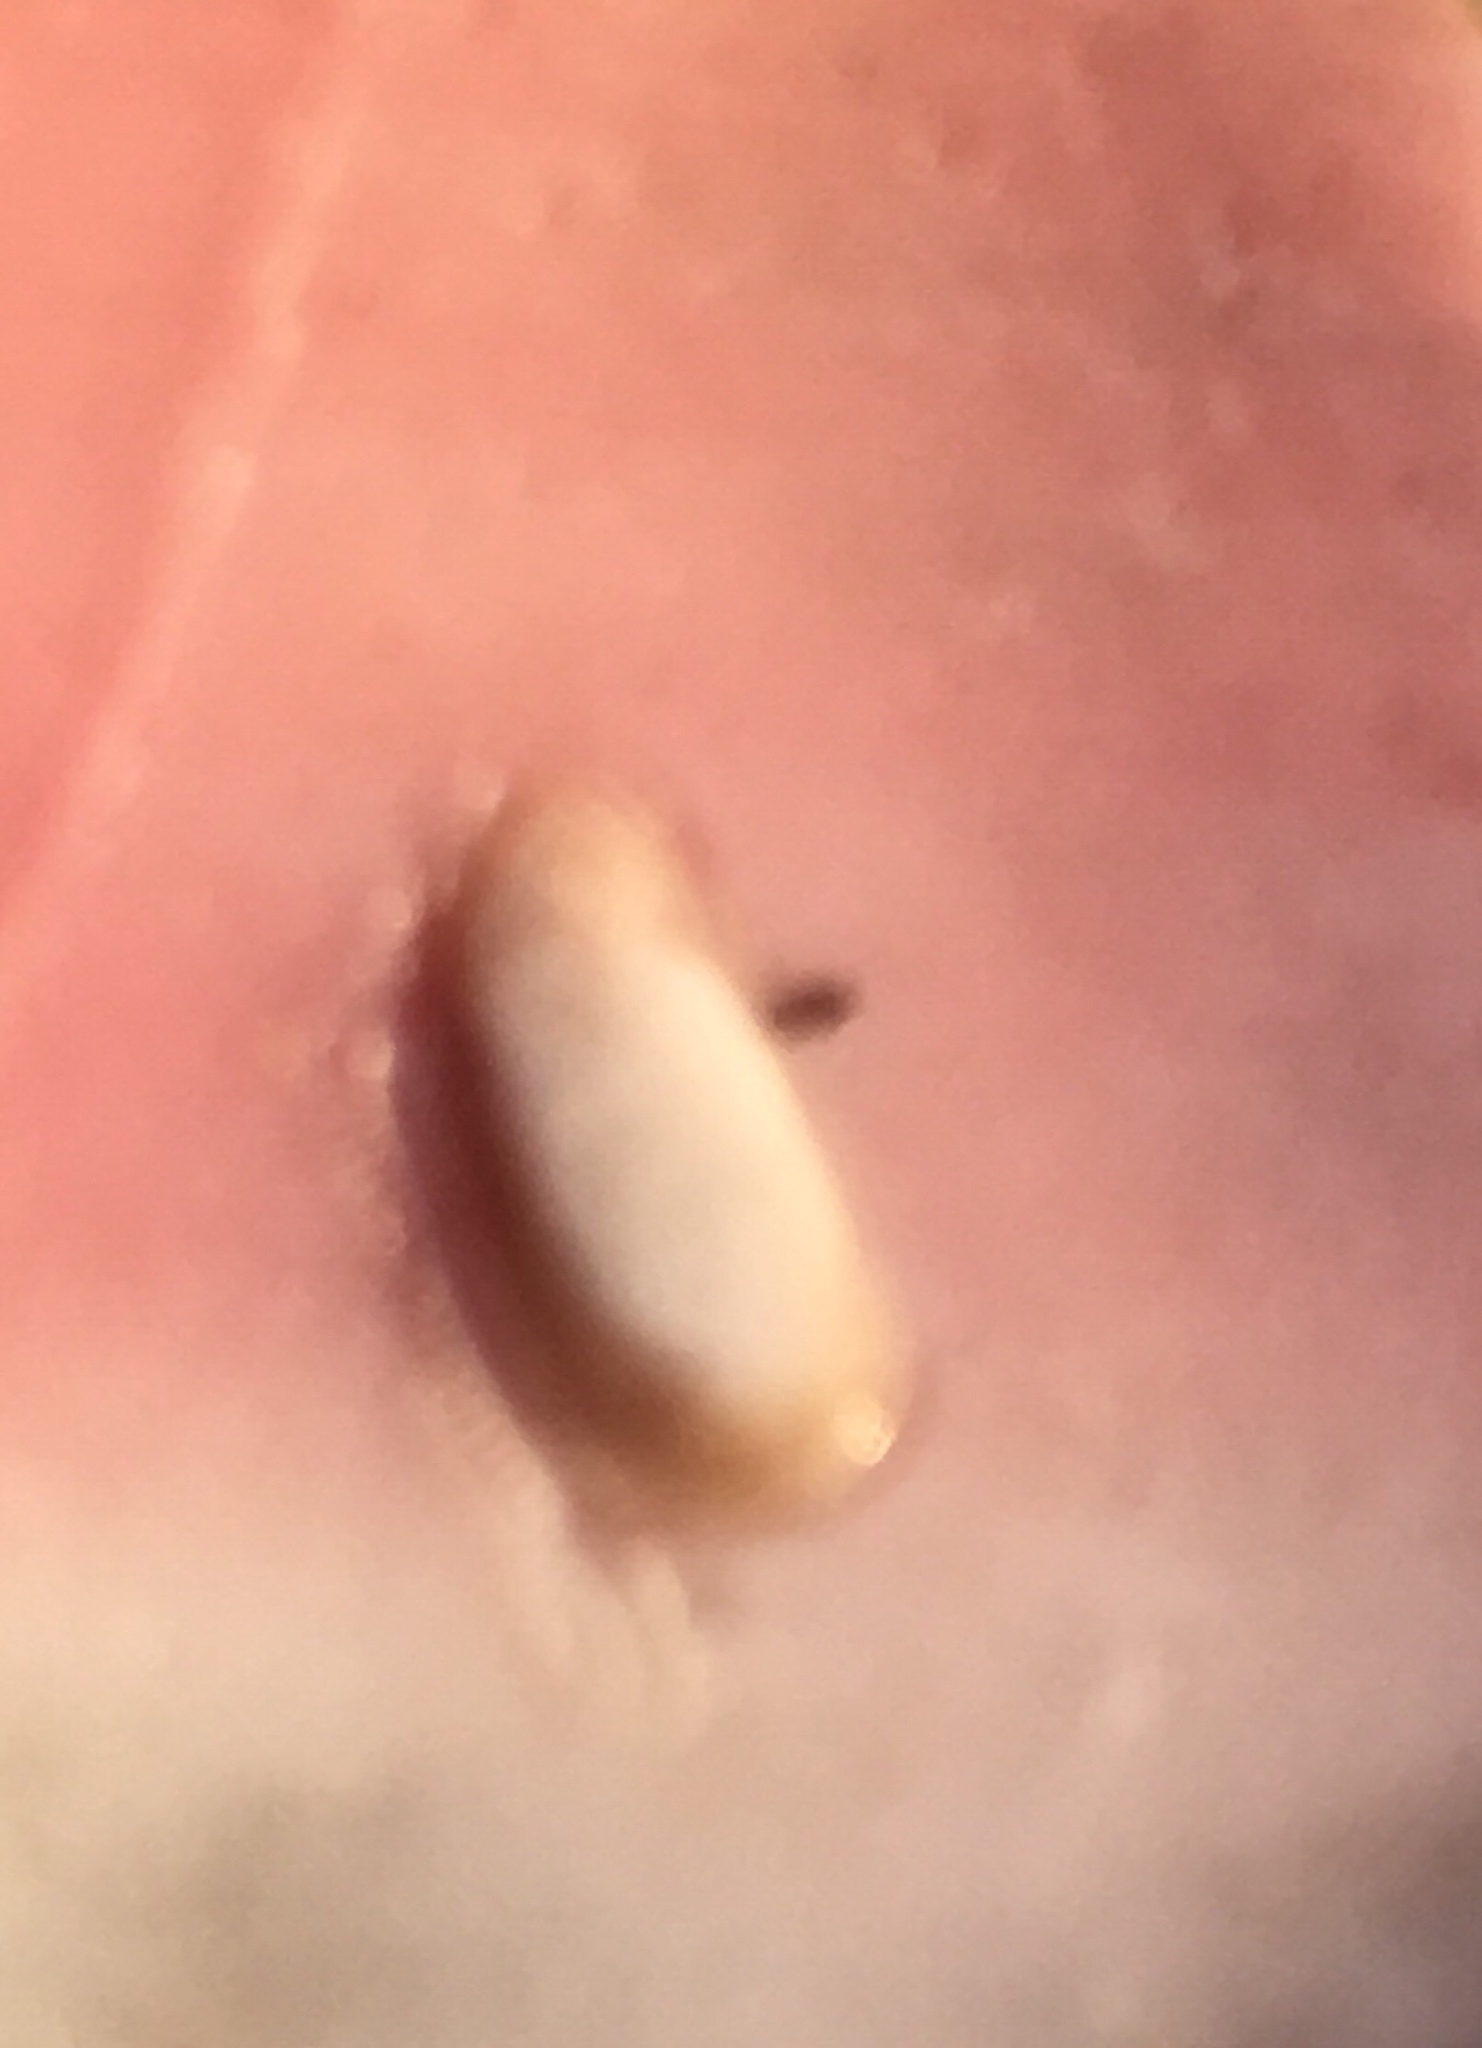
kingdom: Animalia
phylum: Mollusca
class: Bivalvia
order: Gastrochaenida
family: Gastrochaenidae
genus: Rocellaria
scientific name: Rocellaria stimpsonii
